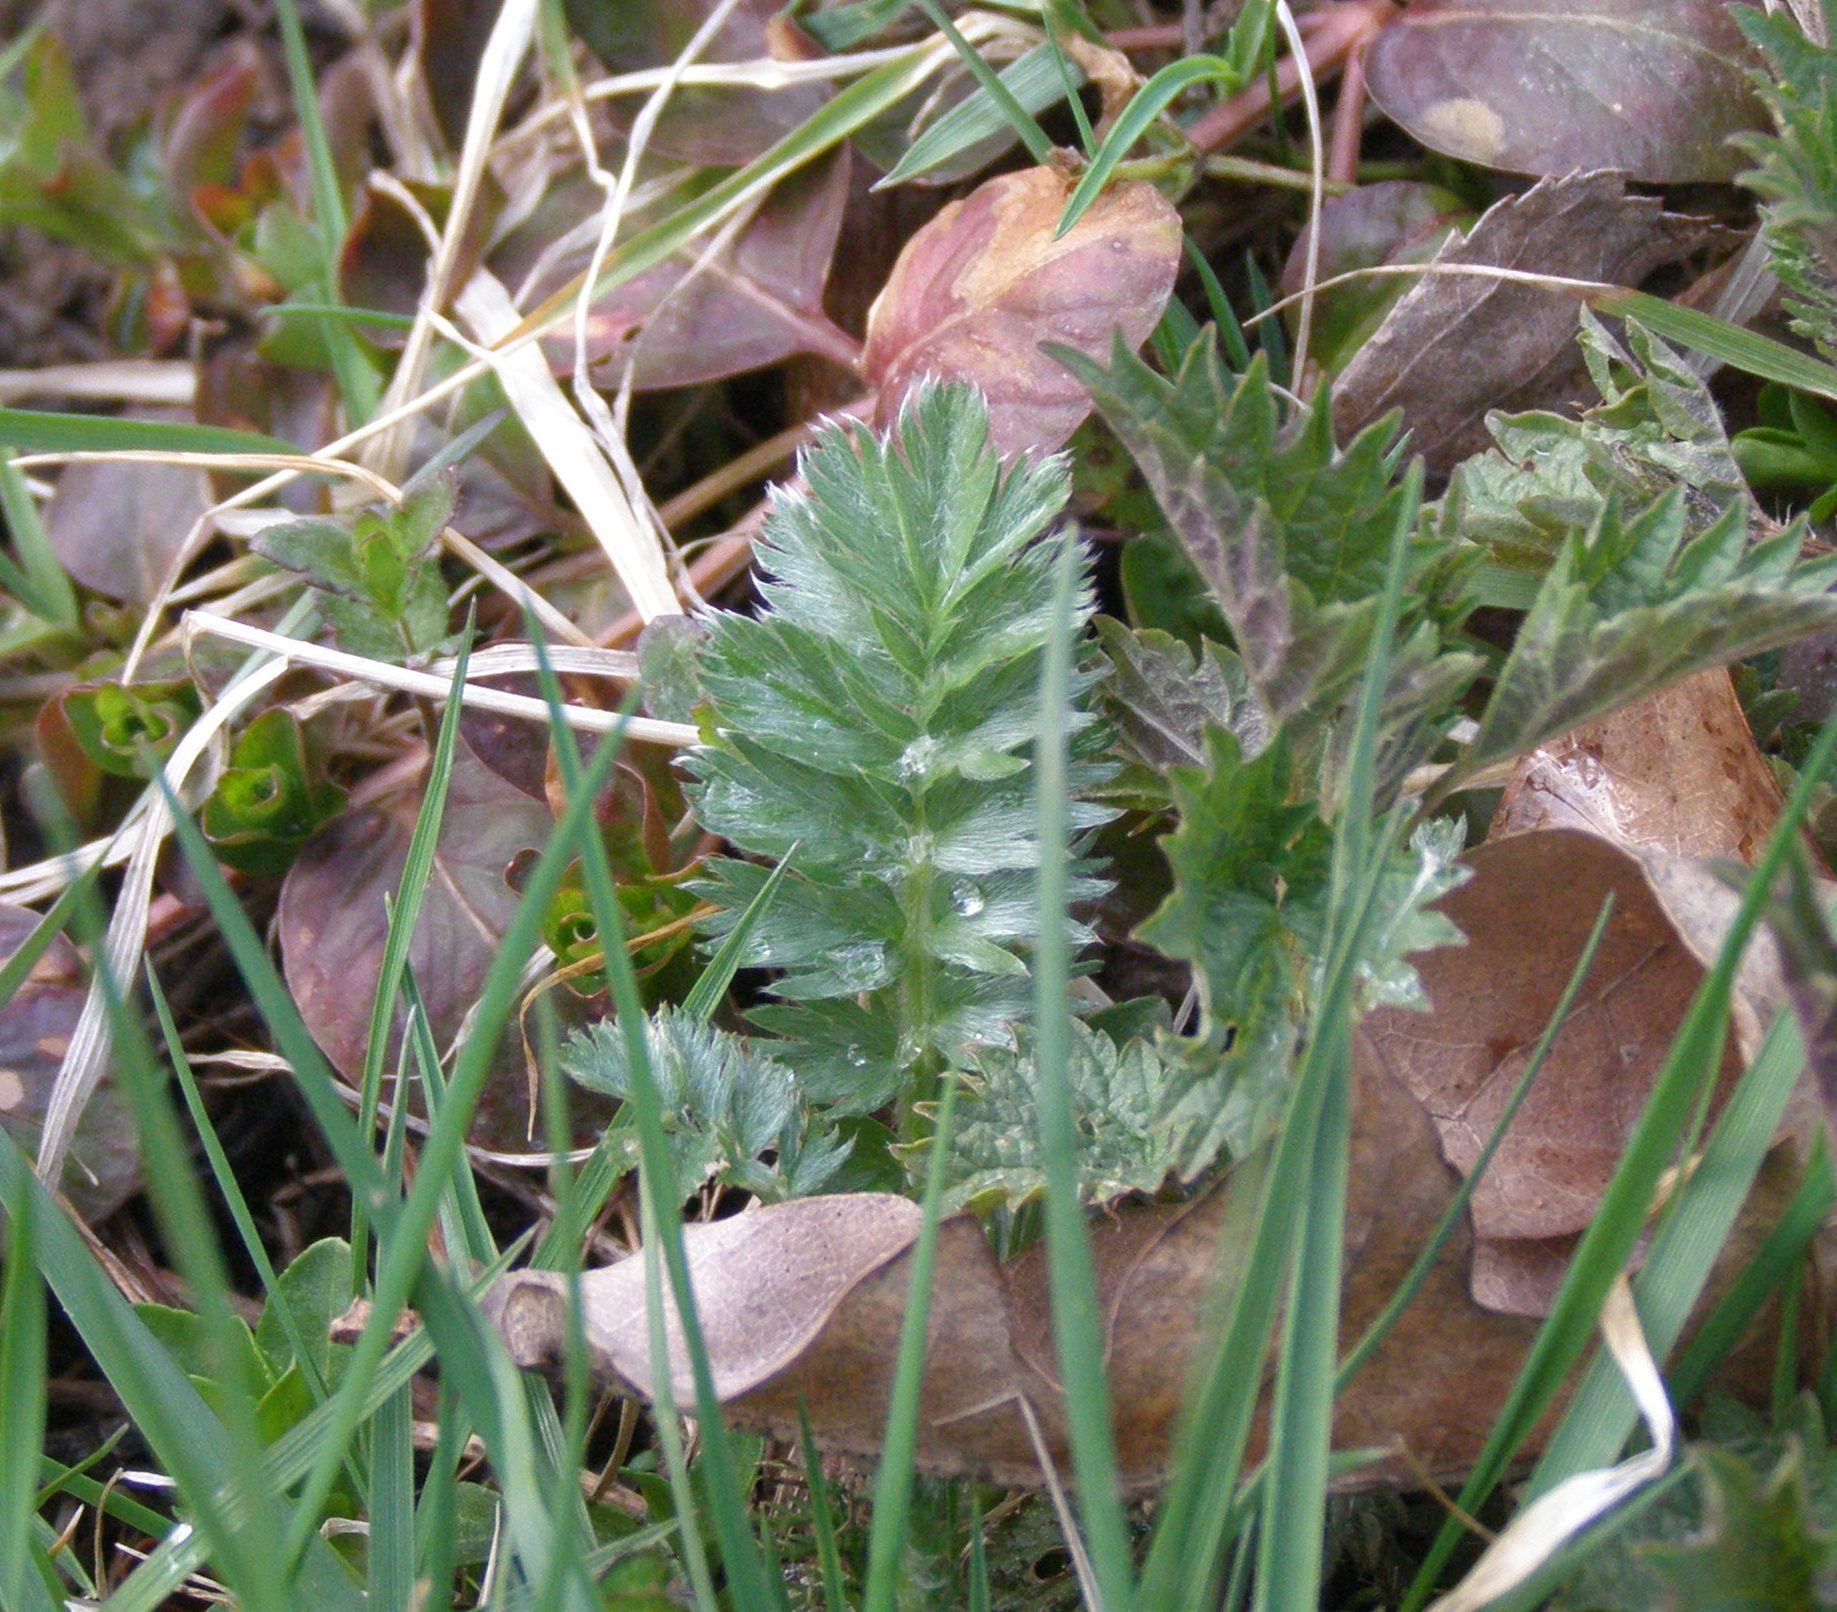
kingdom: Plantae
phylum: Tracheophyta
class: Magnoliopsida
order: Rosales
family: Rosaceae
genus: Argentina
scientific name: Argentina anserina
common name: Common silverweed
